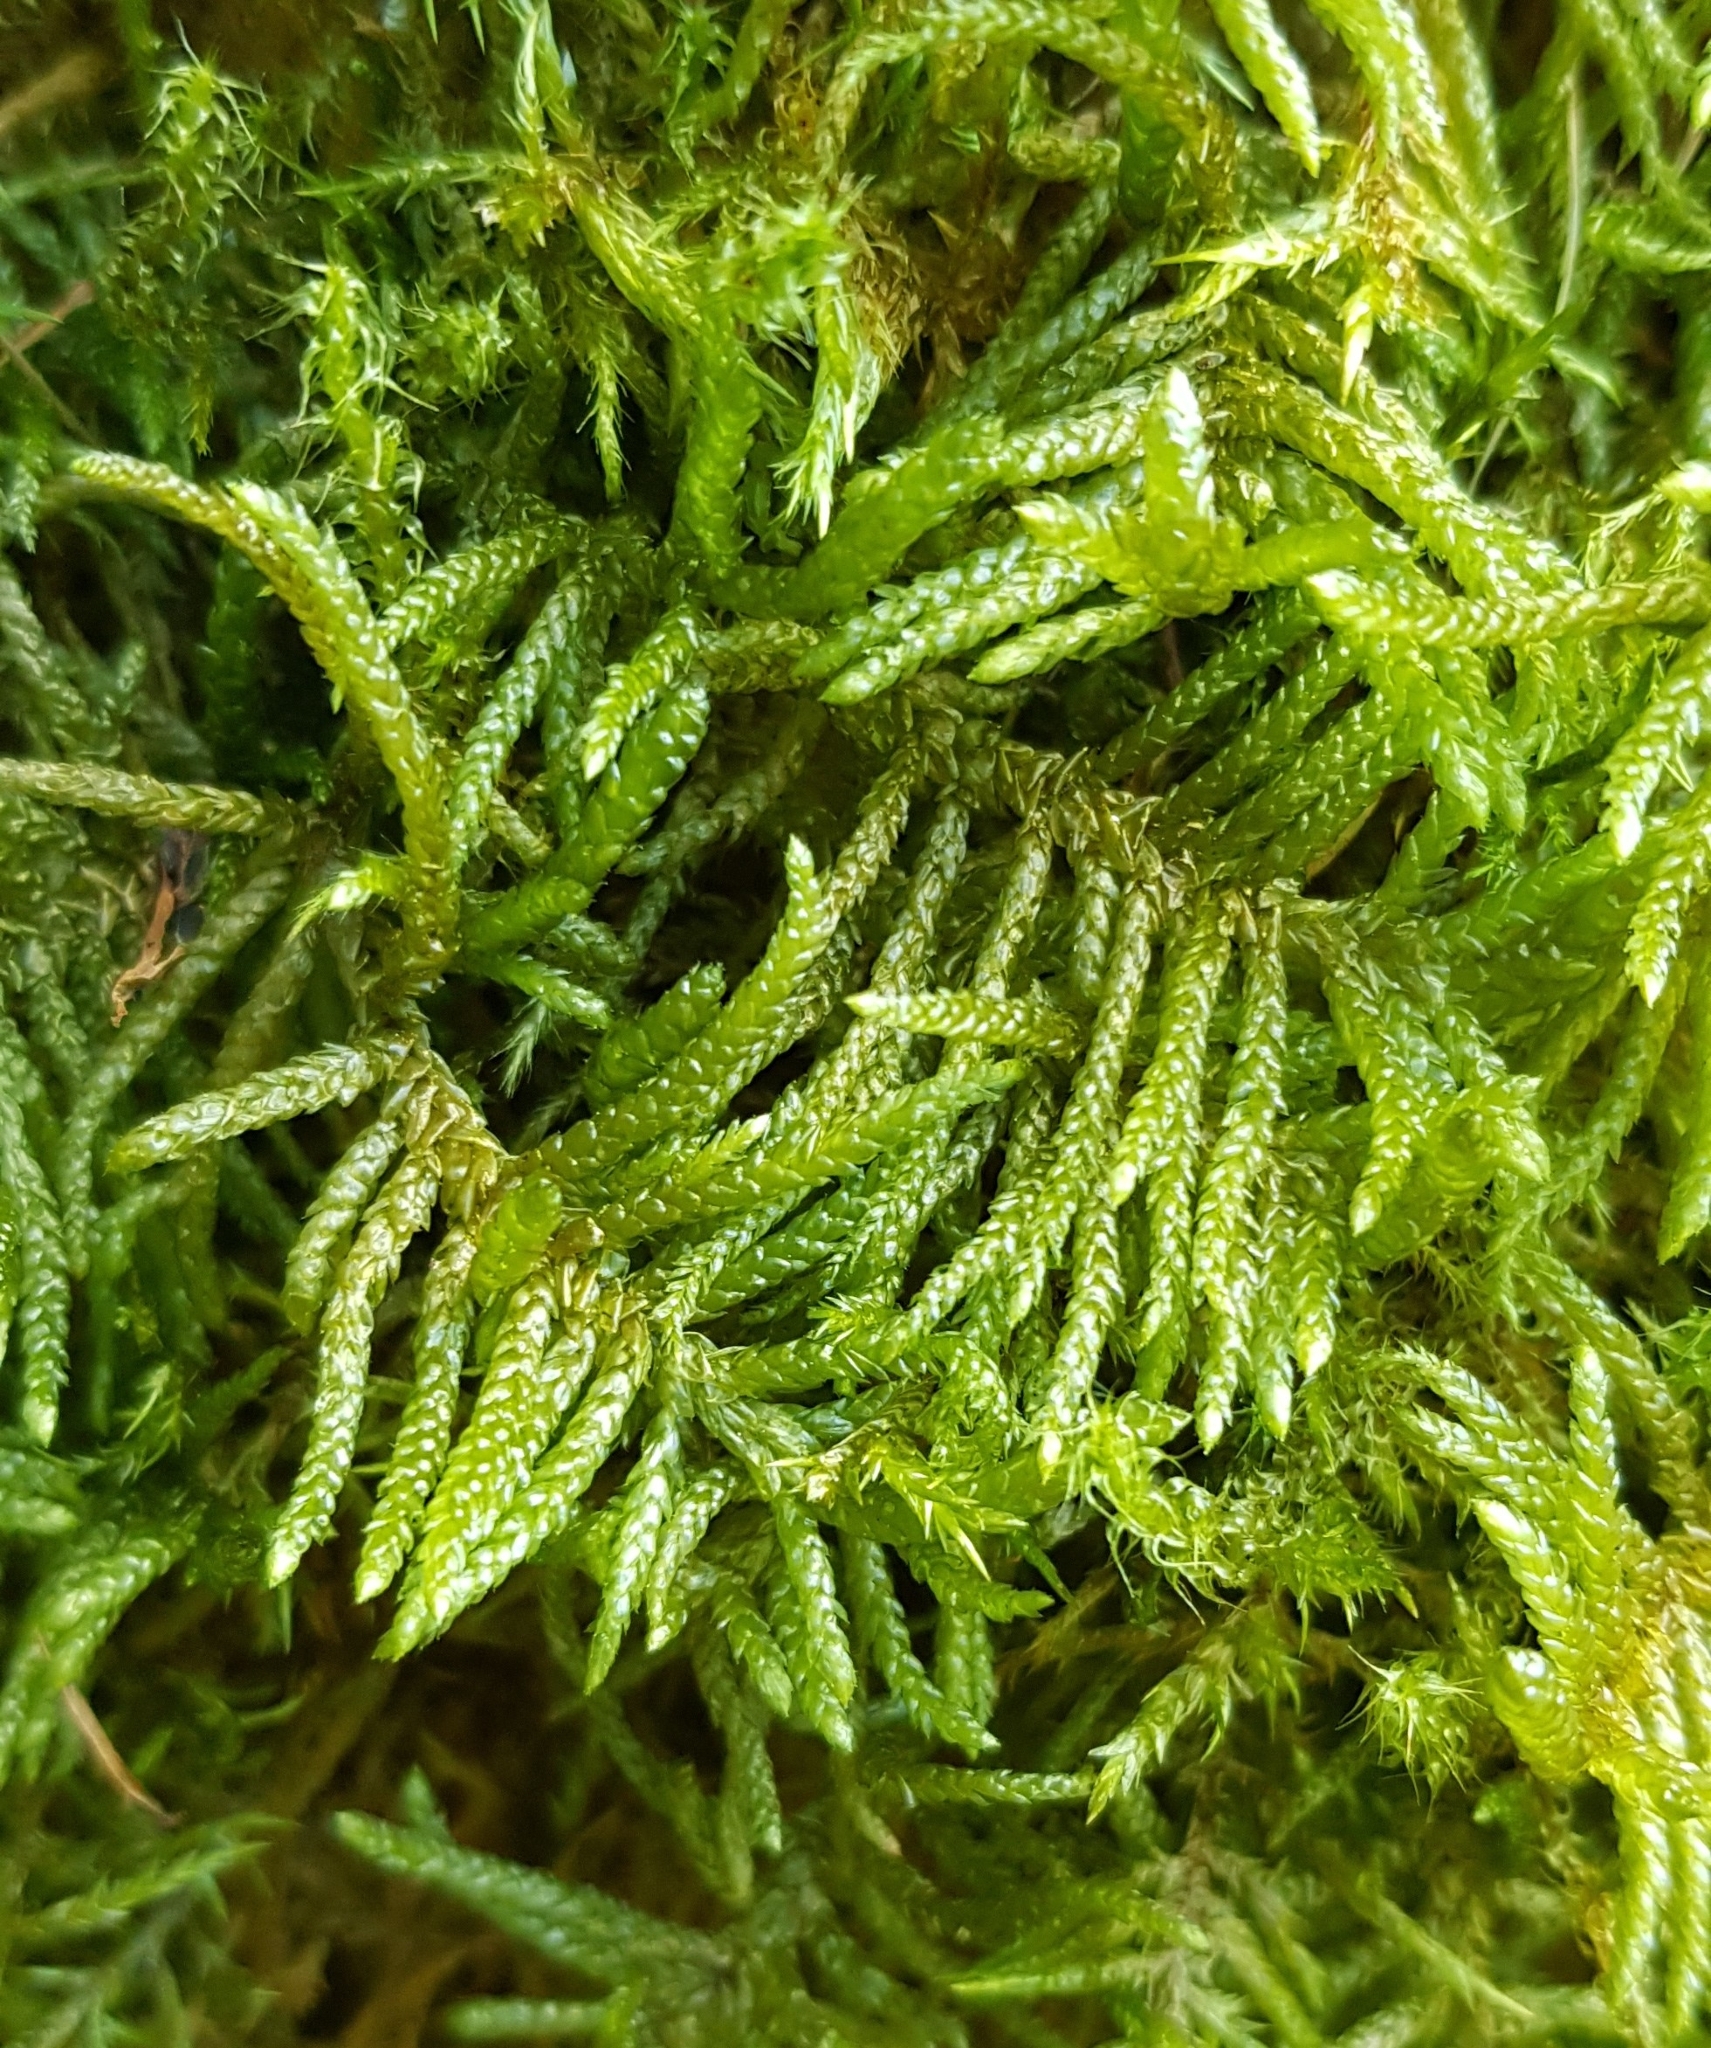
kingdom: Plantae
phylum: Bryophyta
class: Bryopsida
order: Hypnales
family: Brachytheciaceae
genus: Pseudoscleropodium
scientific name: Pseudoscleropodium purum
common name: Neat feather-moss
